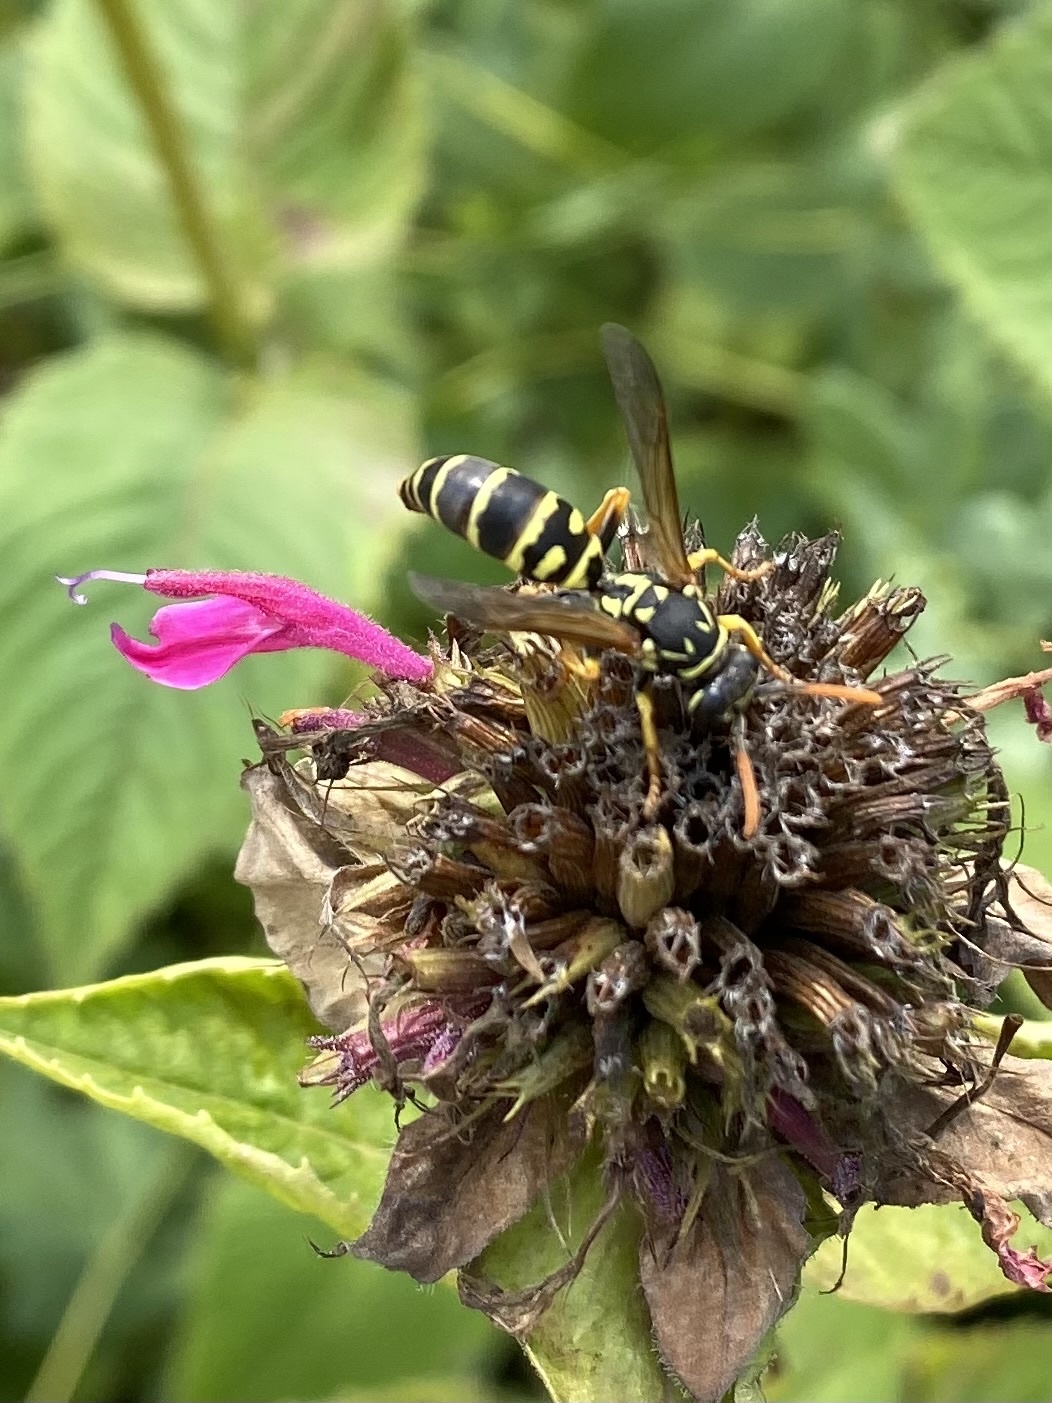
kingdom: Animalia
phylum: Arthropoda
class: Insecta
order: Hymenoptera
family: Eumenidae
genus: Polistes
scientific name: Polistes dominula
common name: Paper wasp
